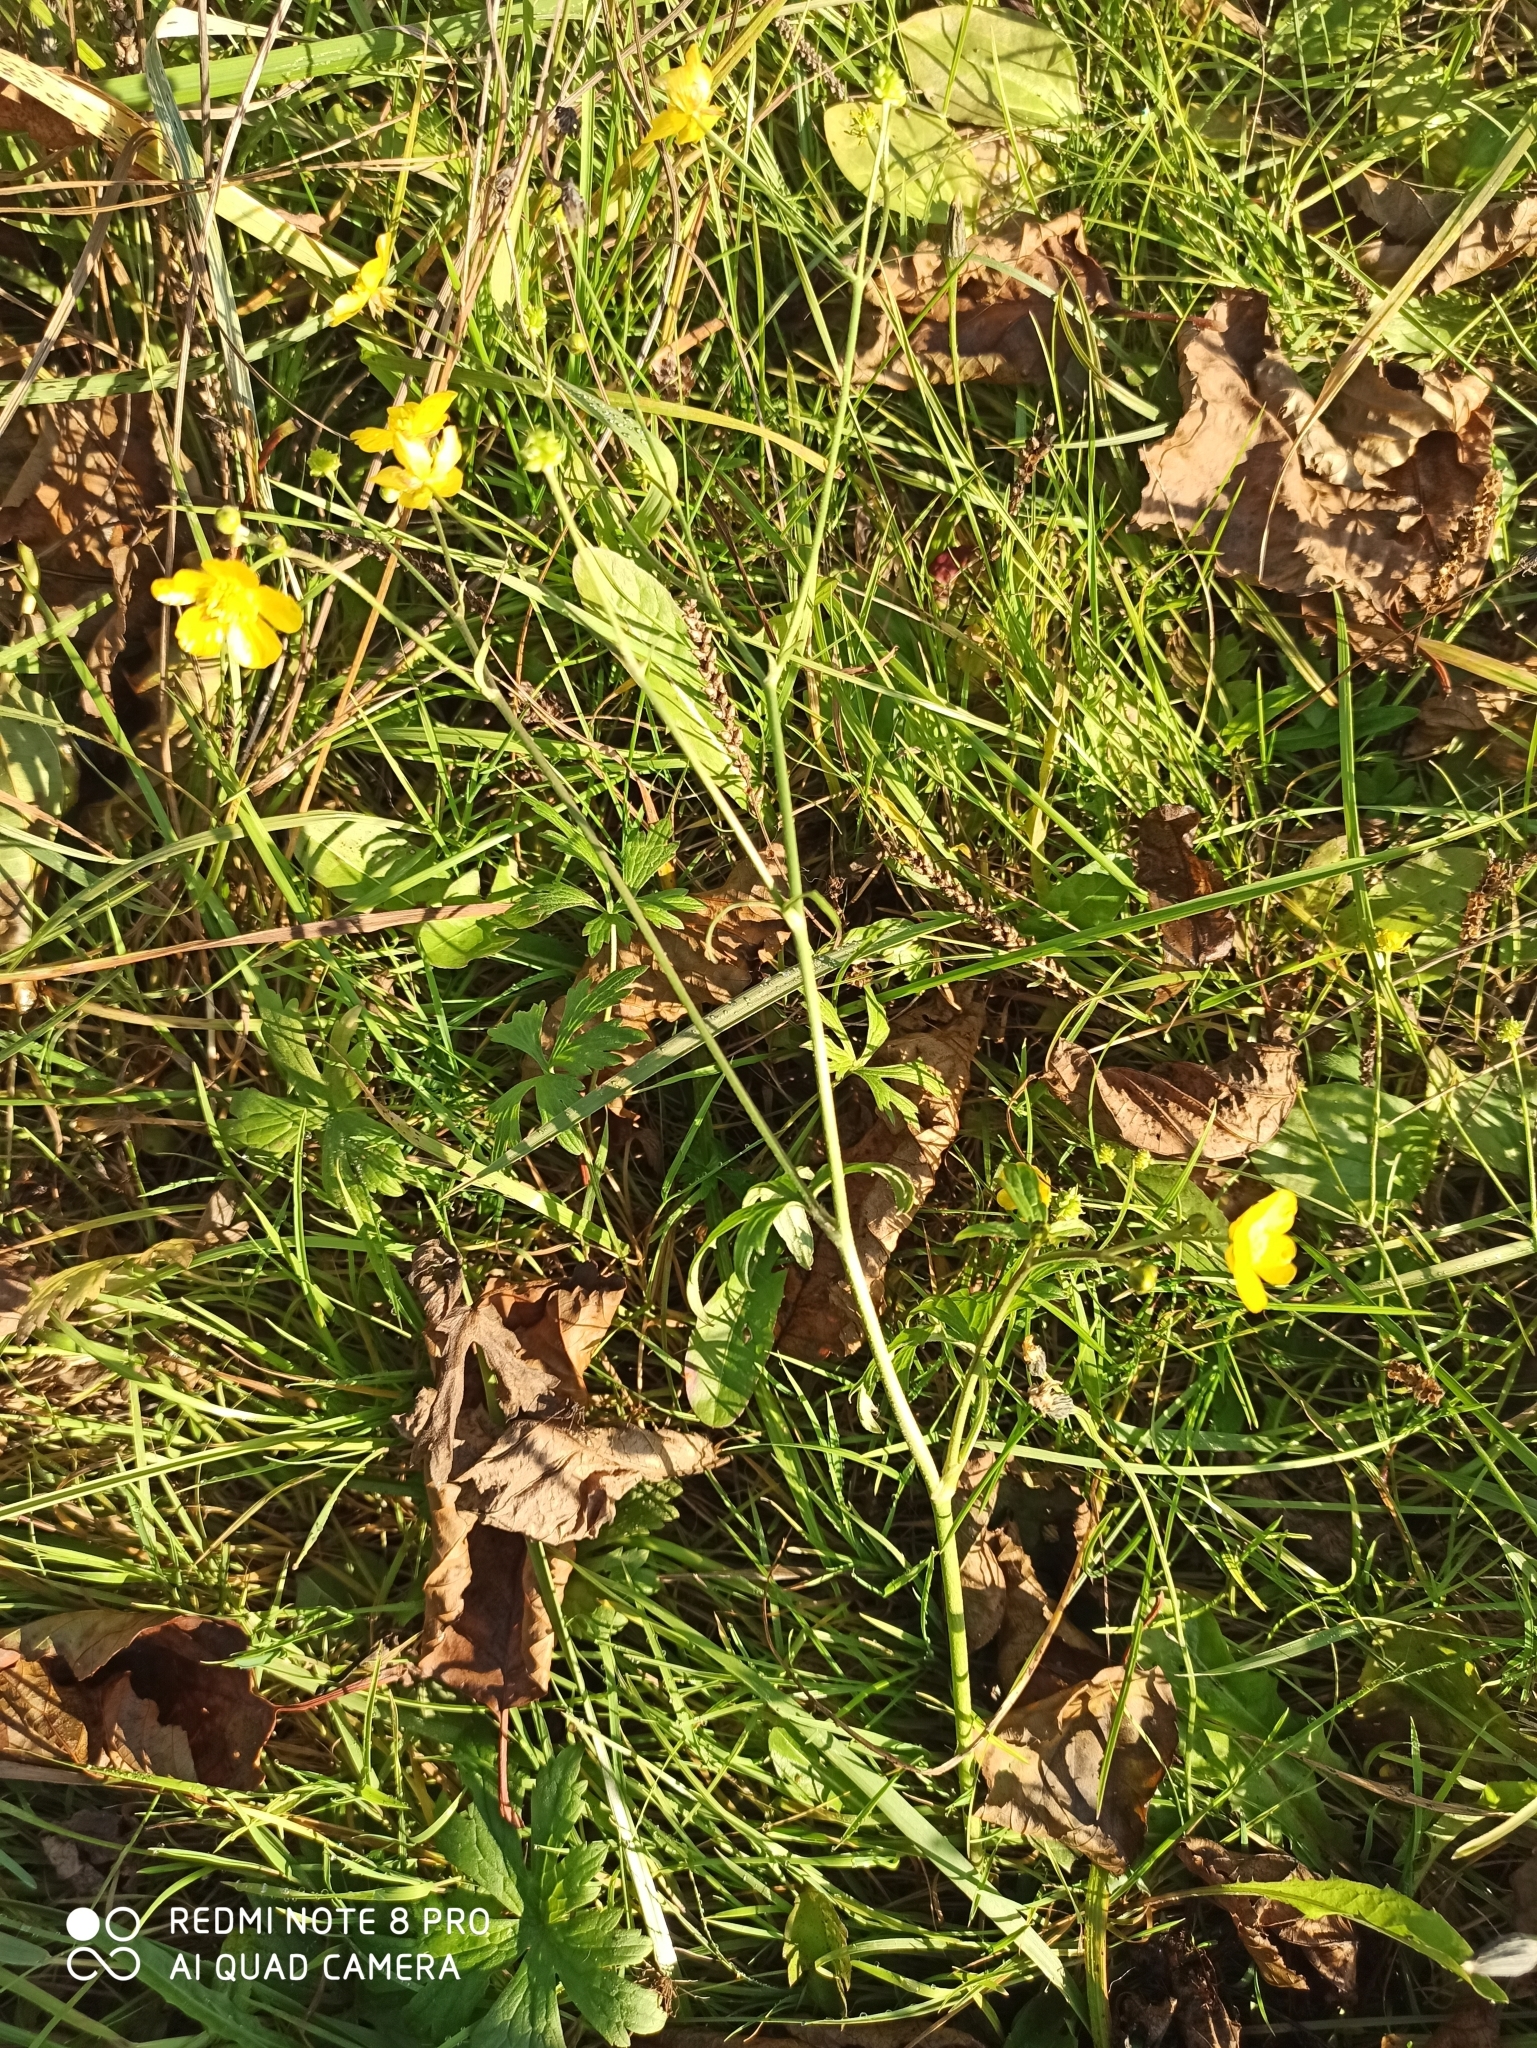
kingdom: Plantae
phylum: Tracheophyta
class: Magnoliopsida
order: Ranunculales
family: Ranunculaceae
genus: Ranunculus
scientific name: Ranunculus acris
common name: Meadow buttercup
